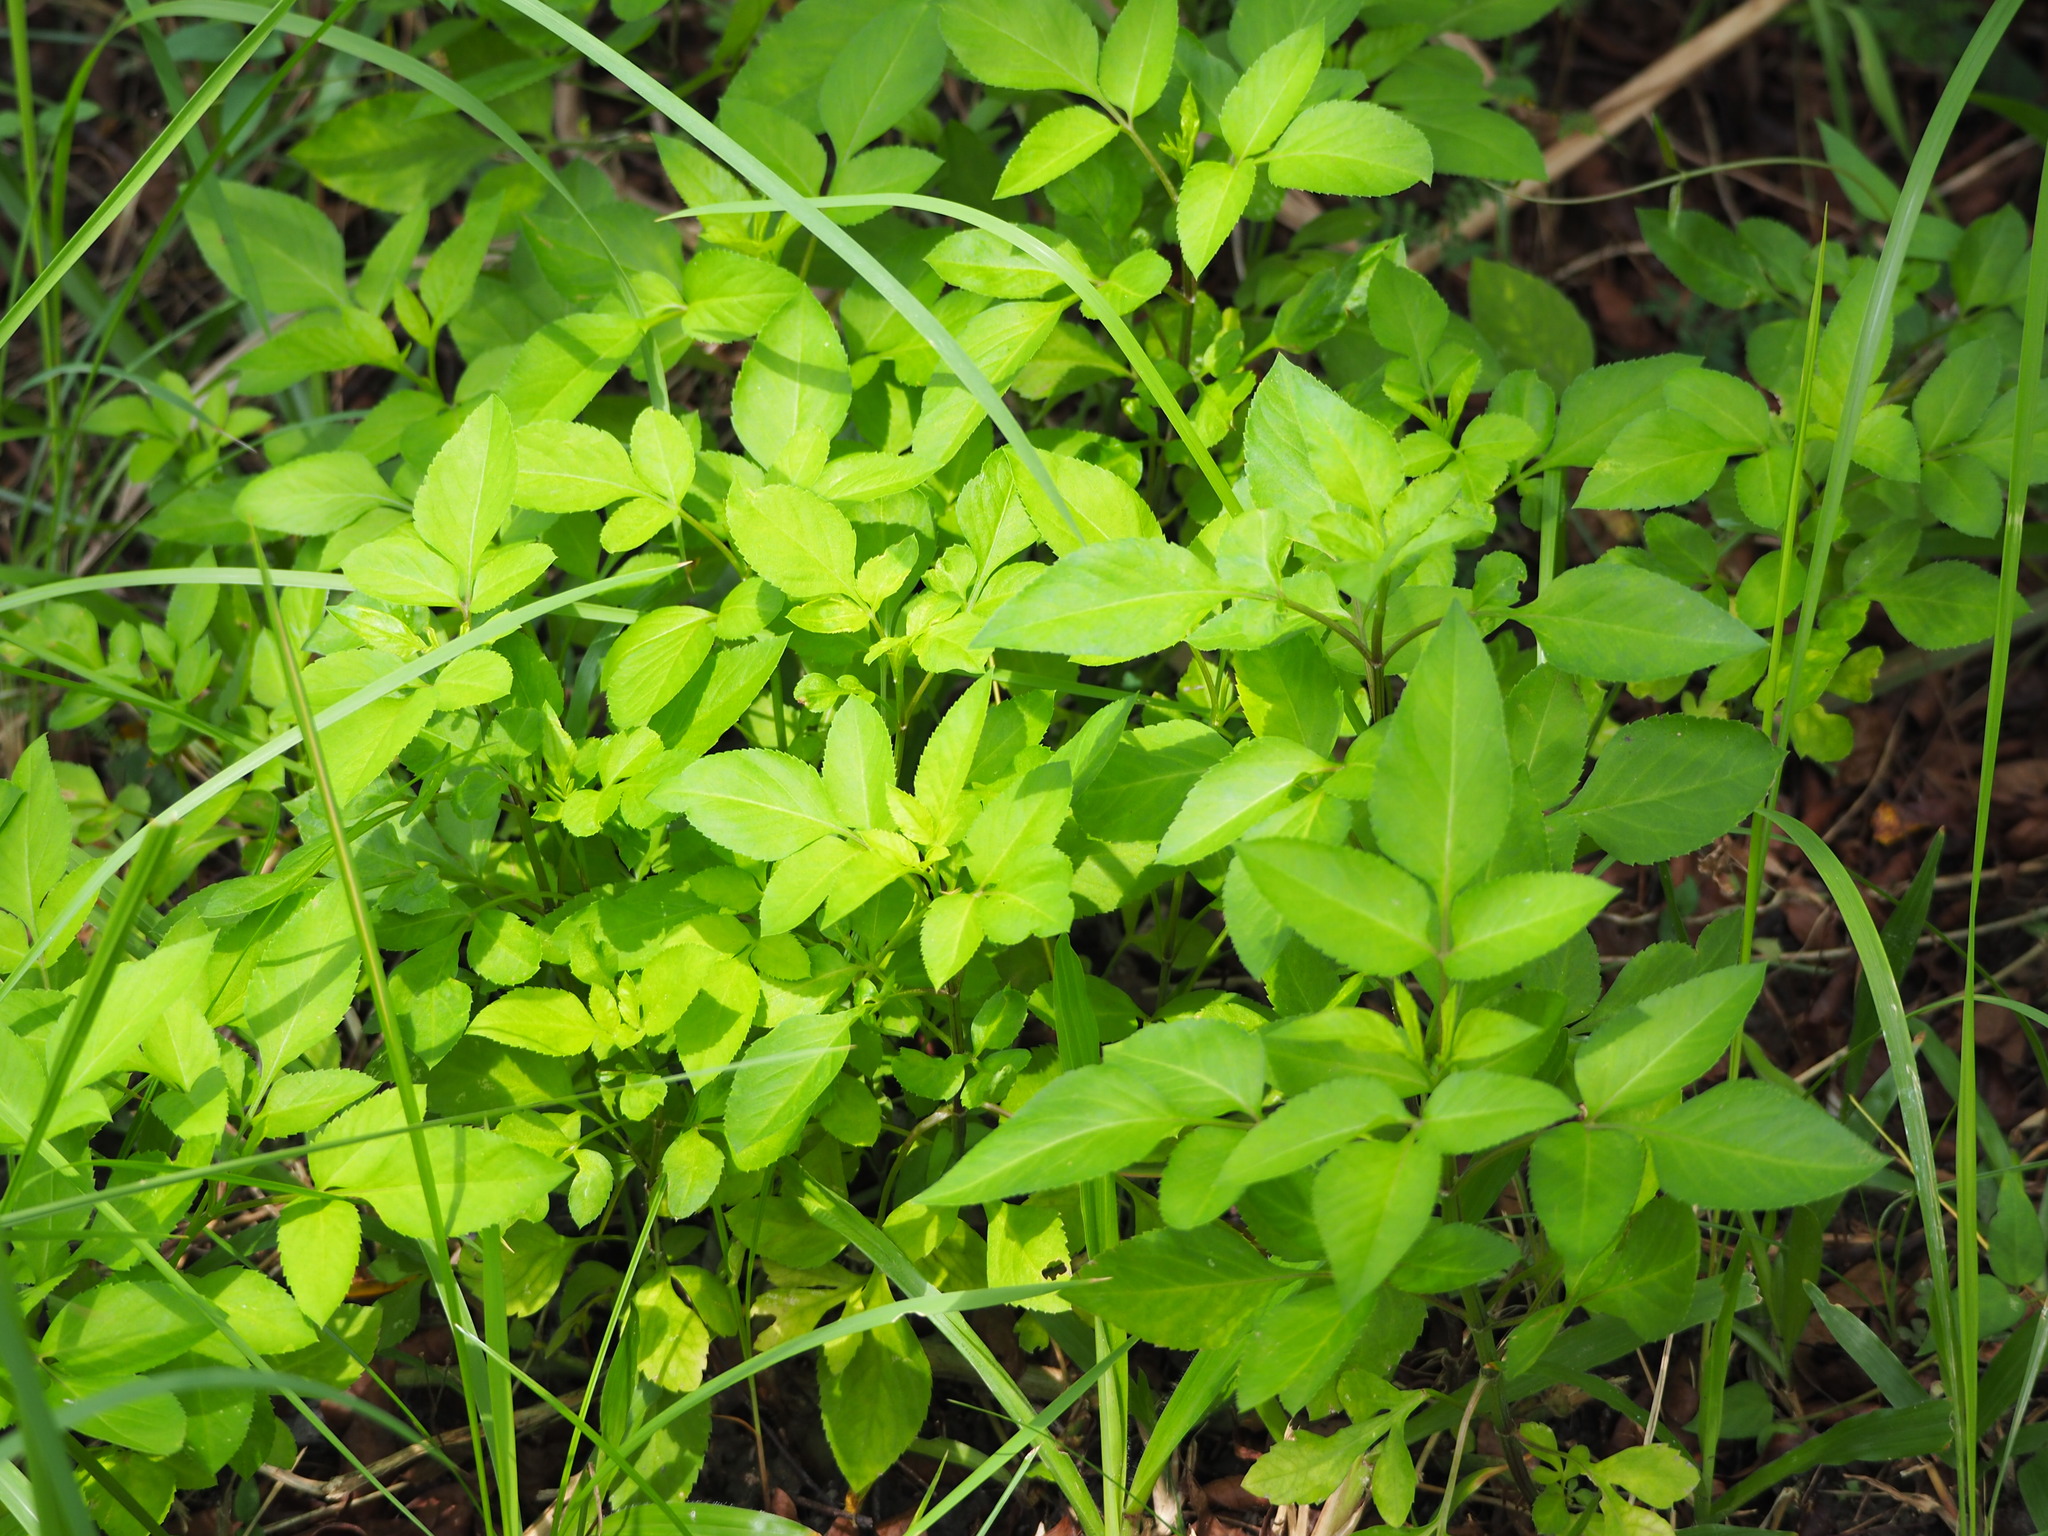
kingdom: Plantae
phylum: Tracheophyta
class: Magnoliopsida
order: Asterales
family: Asteraceae
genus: Bidens
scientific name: Bidens alba
